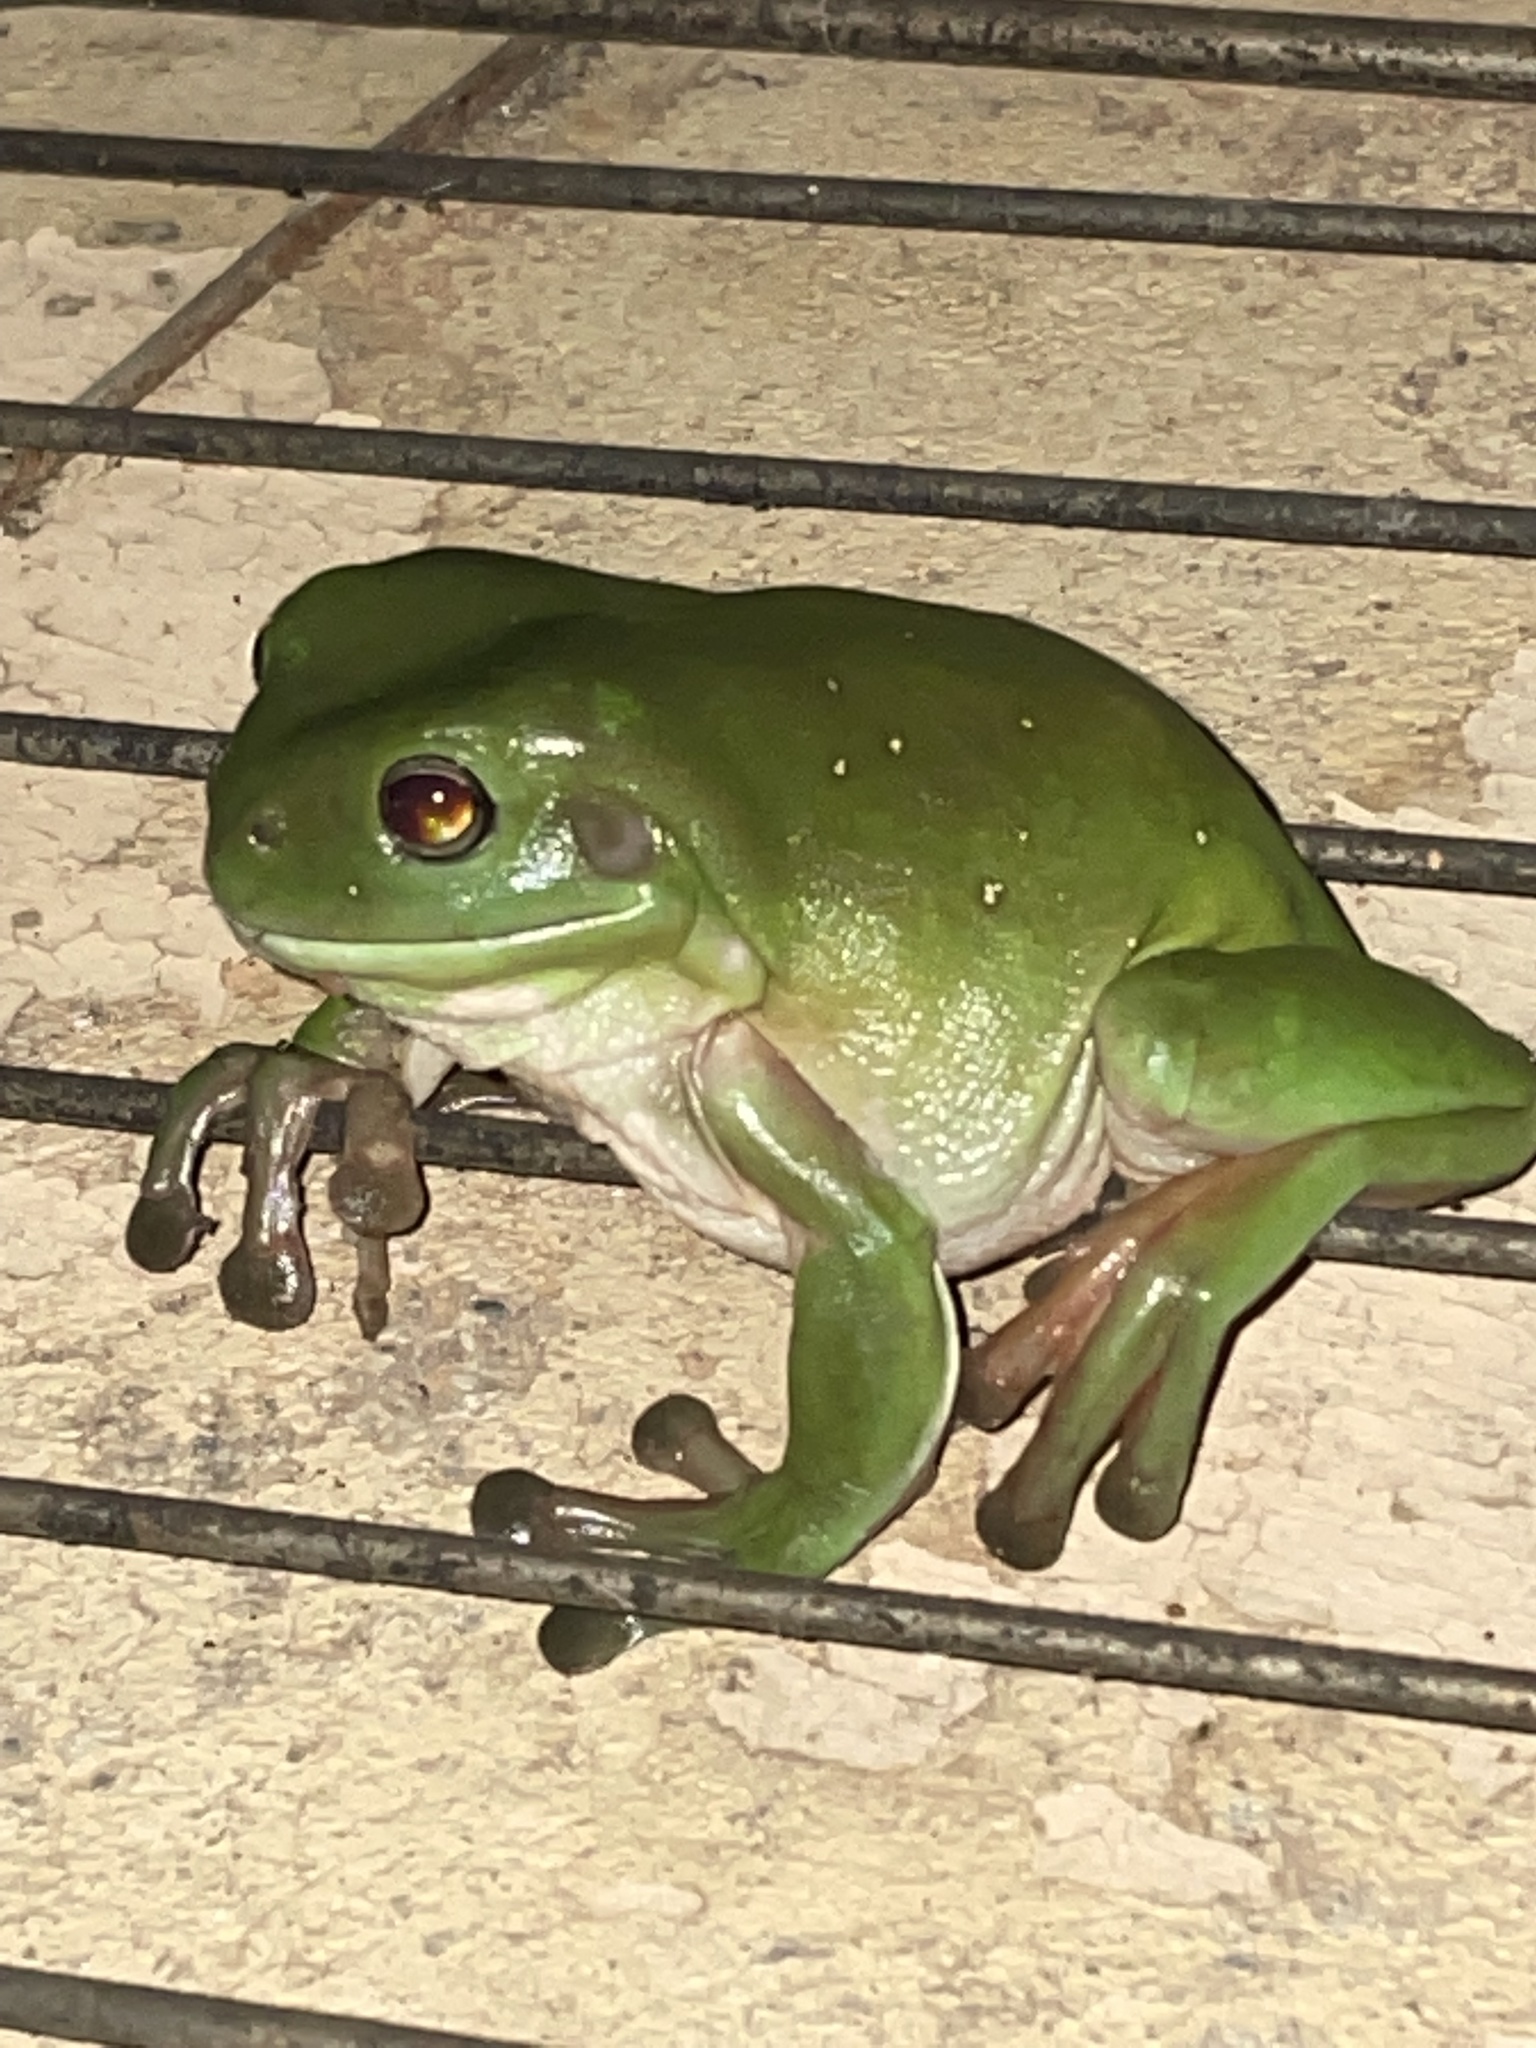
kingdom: Animalia
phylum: Chordata
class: Amphibia
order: Anura
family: Pelodryadidae
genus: Ranoidea
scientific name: Ranoidea caerulea
